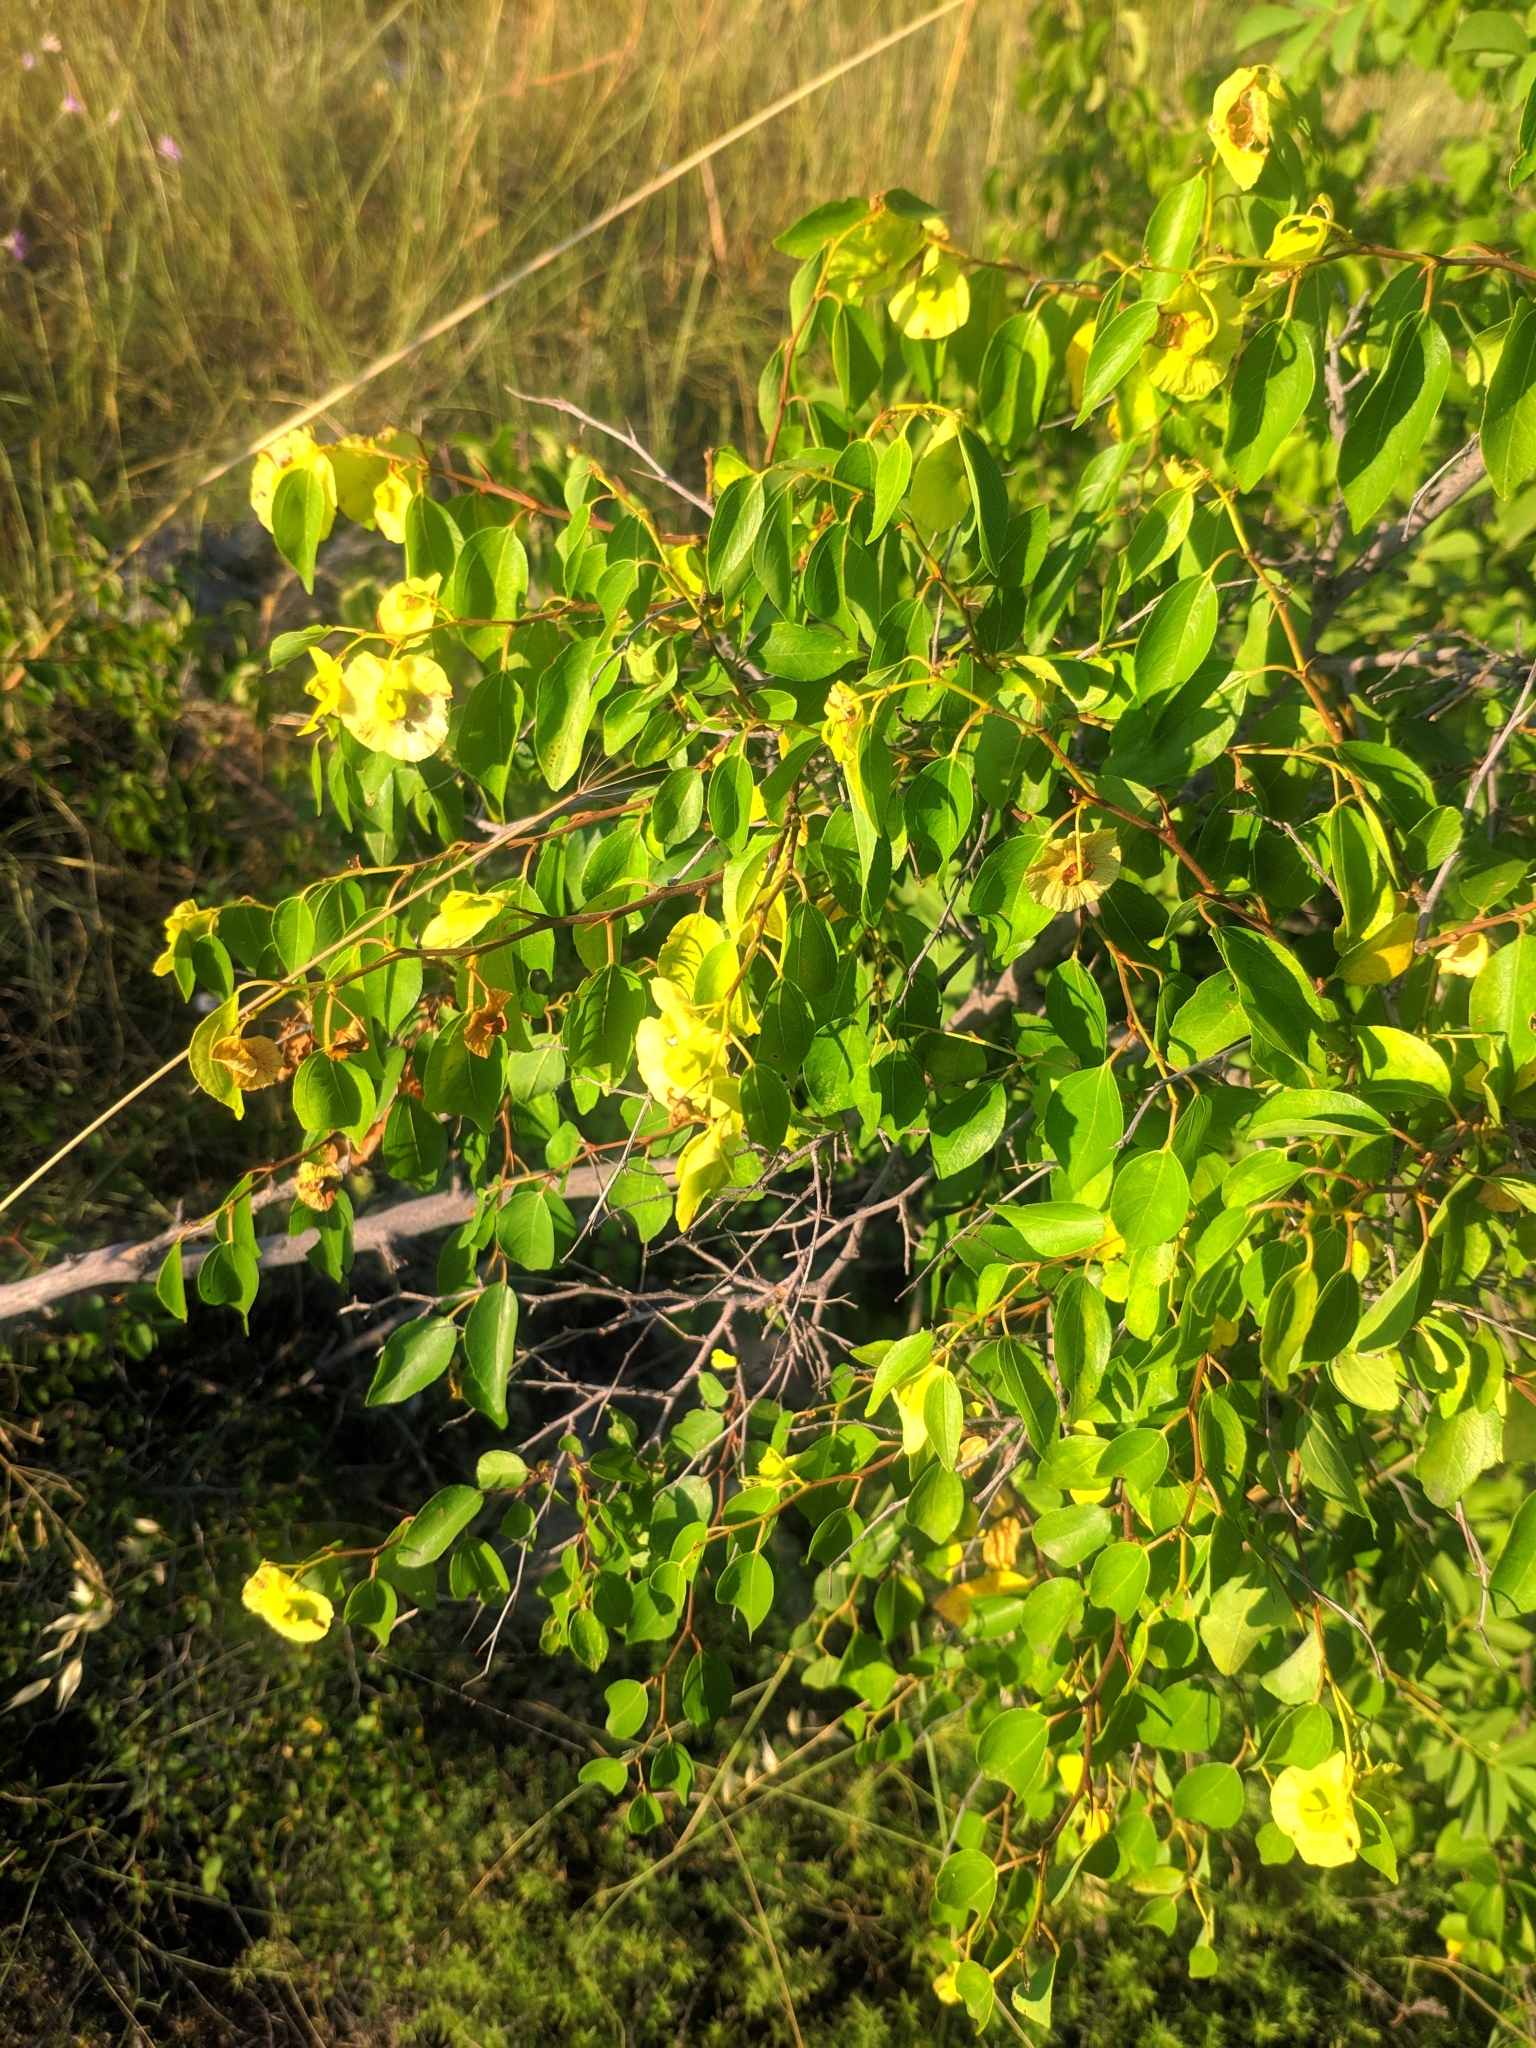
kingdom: Plantae
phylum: Tracheophyta
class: Magnoliopsida
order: Rosales
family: Rhamnaceae
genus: Paliurus
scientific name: Paliurus spina-christi
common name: Jeruselem thorn
